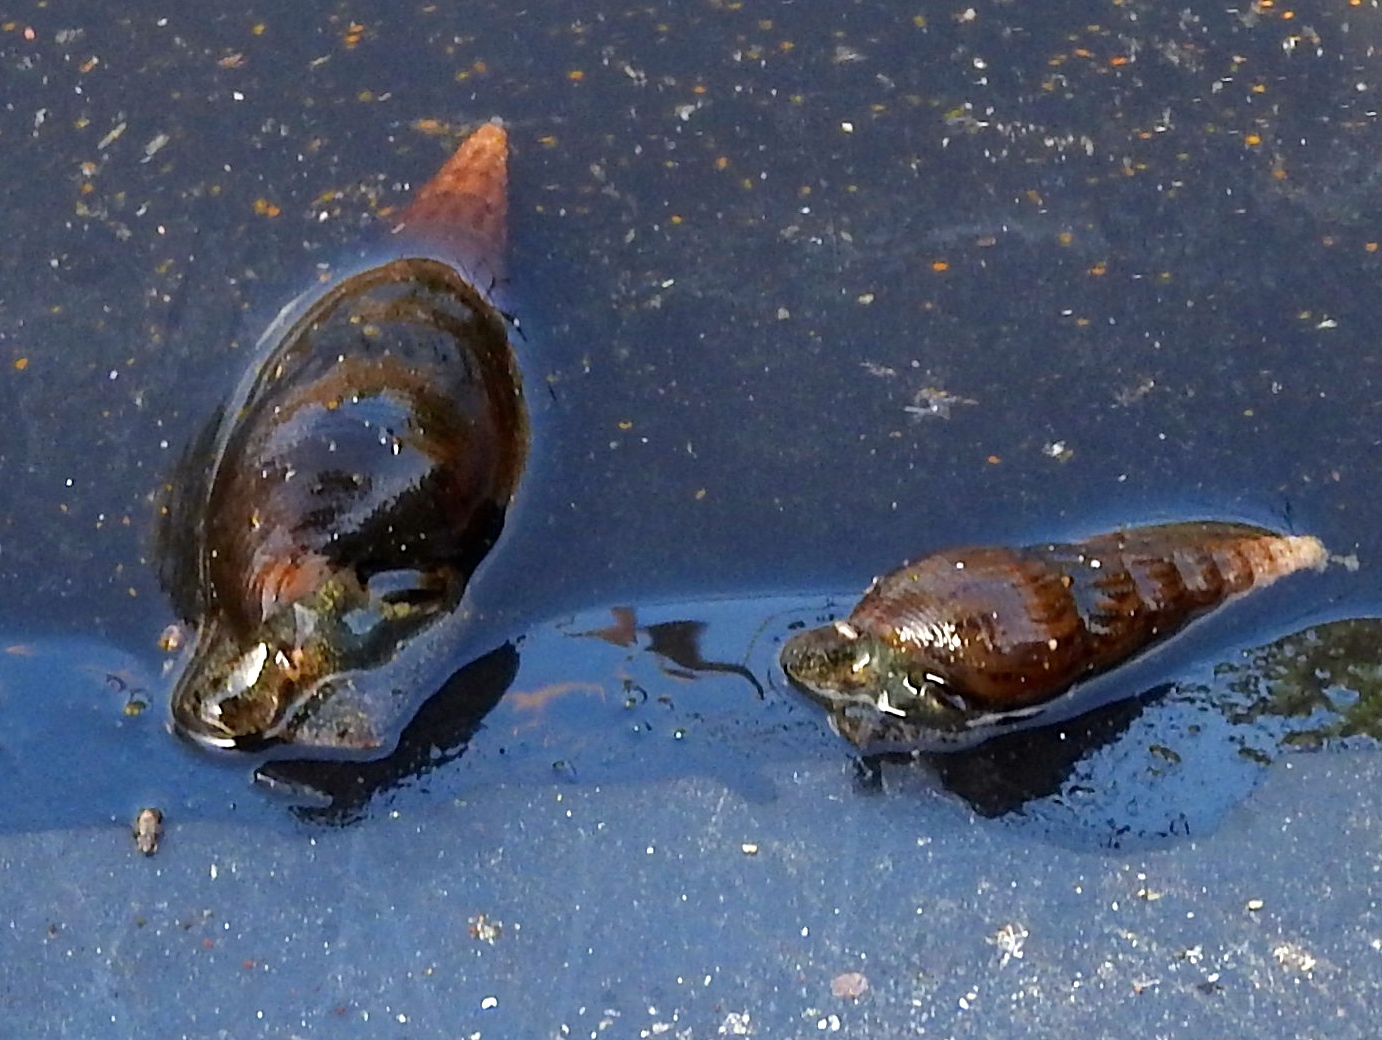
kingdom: Animalia
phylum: Mollusca
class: Gastropoda
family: Thiaridae
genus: Melanoides
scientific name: Melanoides tuberculata
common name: Red-rim melania
